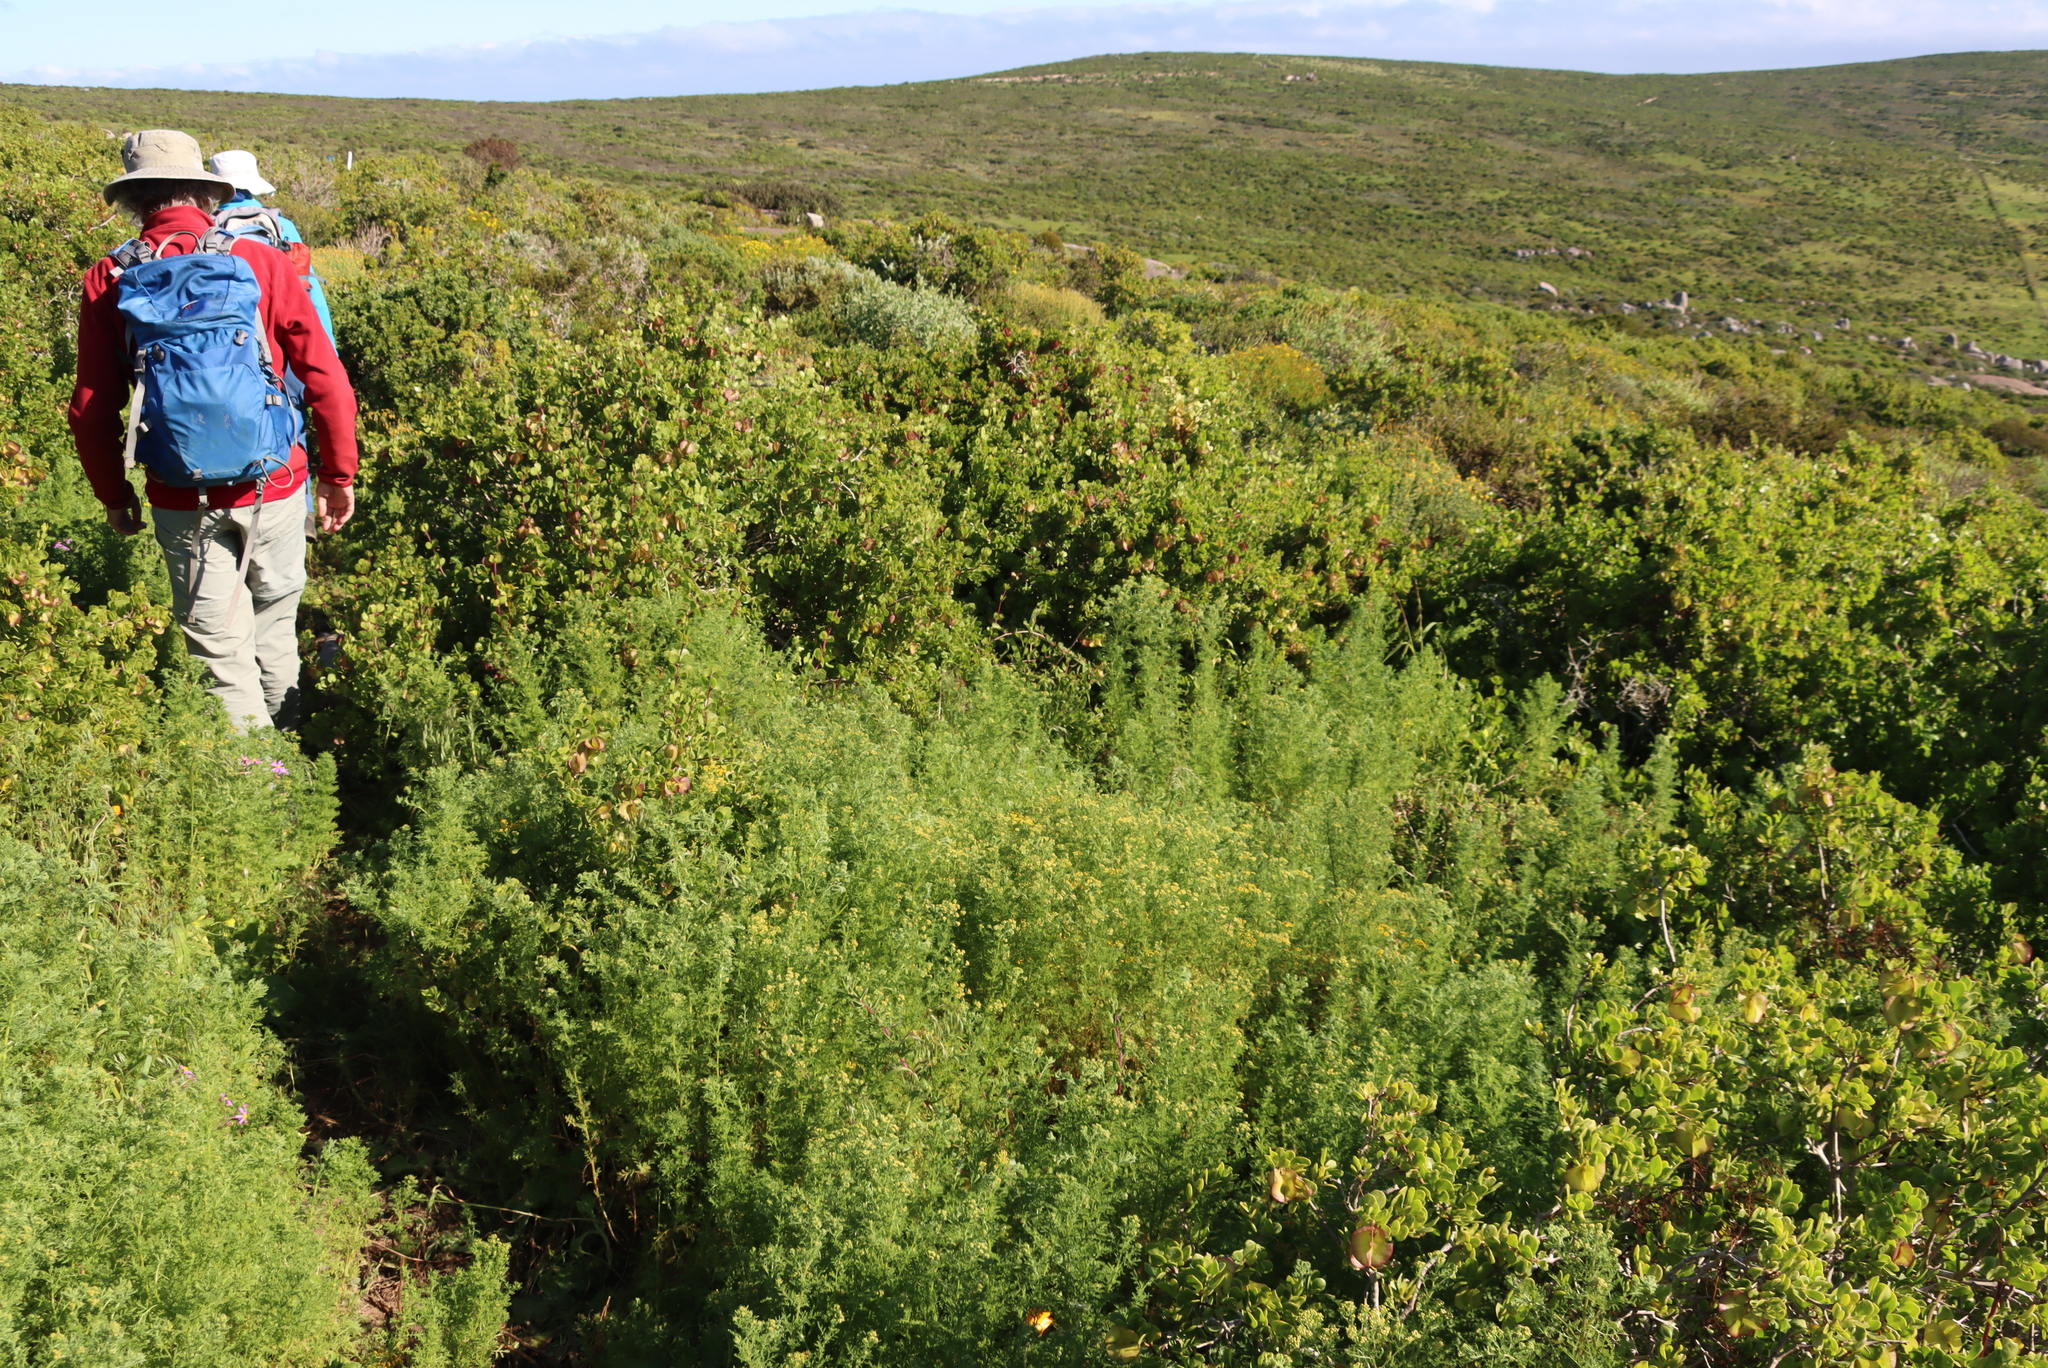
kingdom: Plantae
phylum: Tracheophyta
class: Magnoliopsida
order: Sapindales
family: Anacardiaceae
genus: Searsia
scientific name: Searsia pterota
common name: Winged currant
